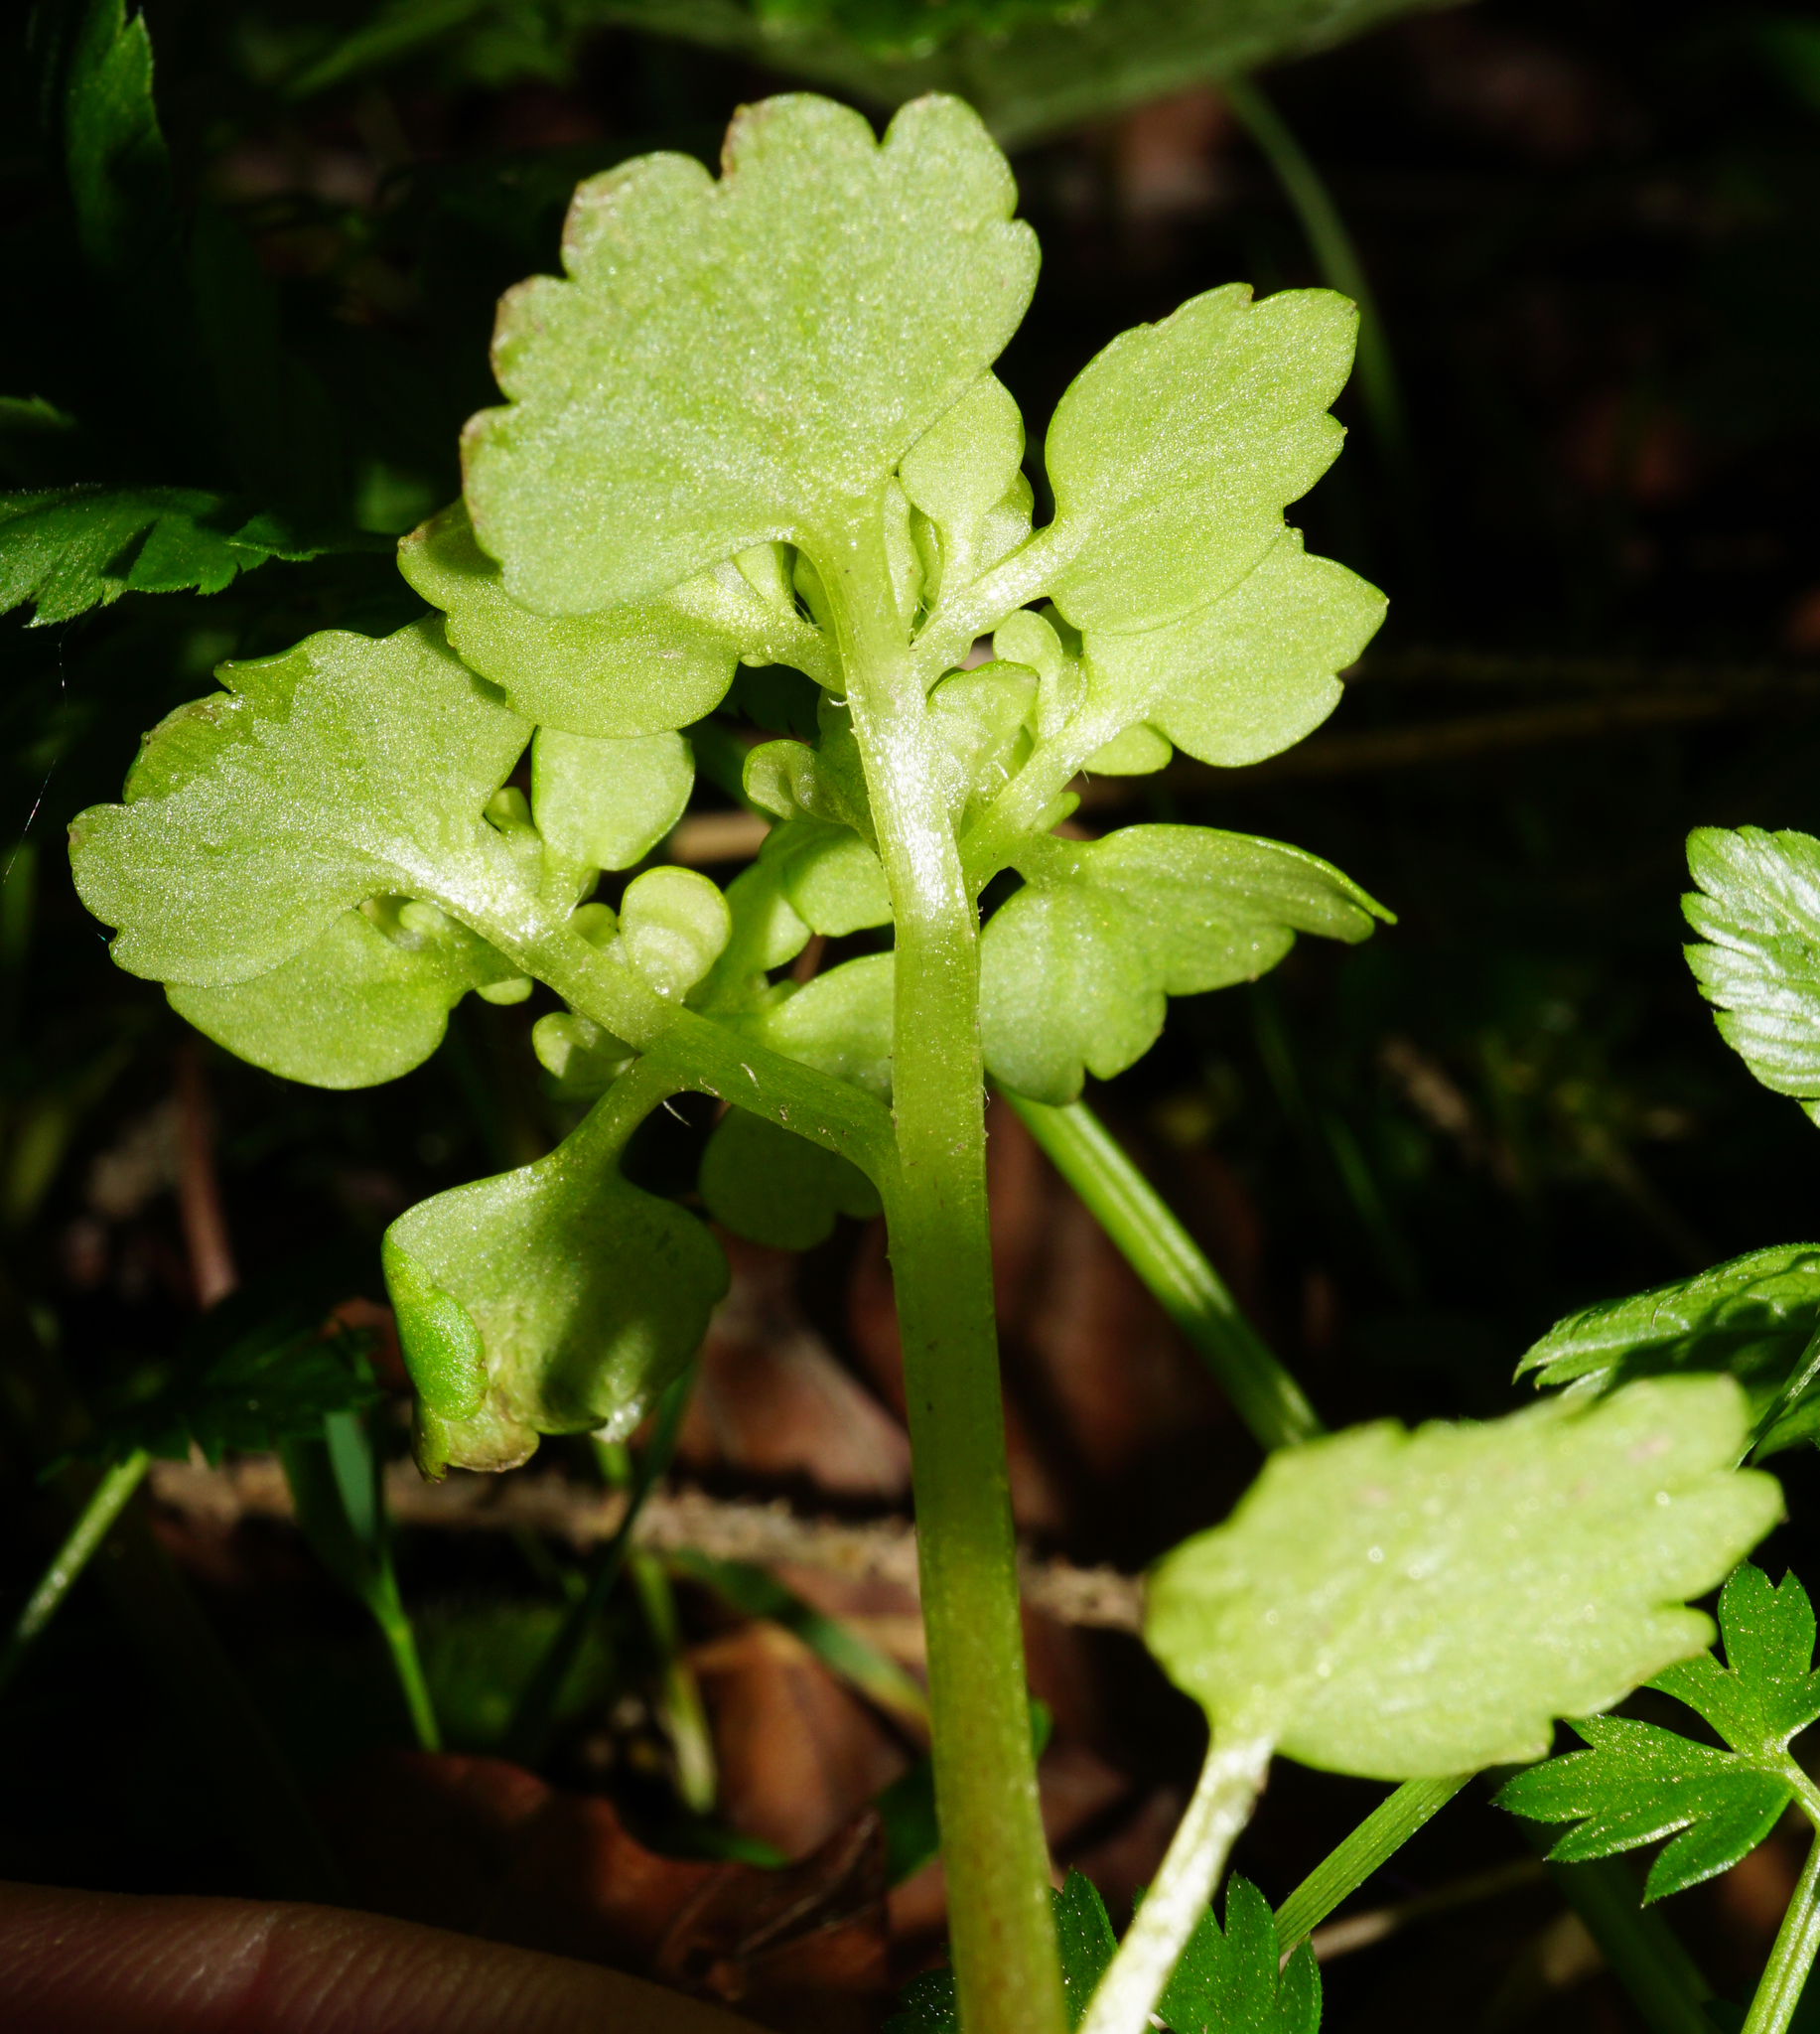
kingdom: Plantae
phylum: Tracheophyta
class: Magnoliopsida
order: Saxifragales
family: Saxifragaceae
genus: Chrysosplenium
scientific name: Chrysosplenium alternifolium
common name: Alternate-leaved golden-saxifrage
